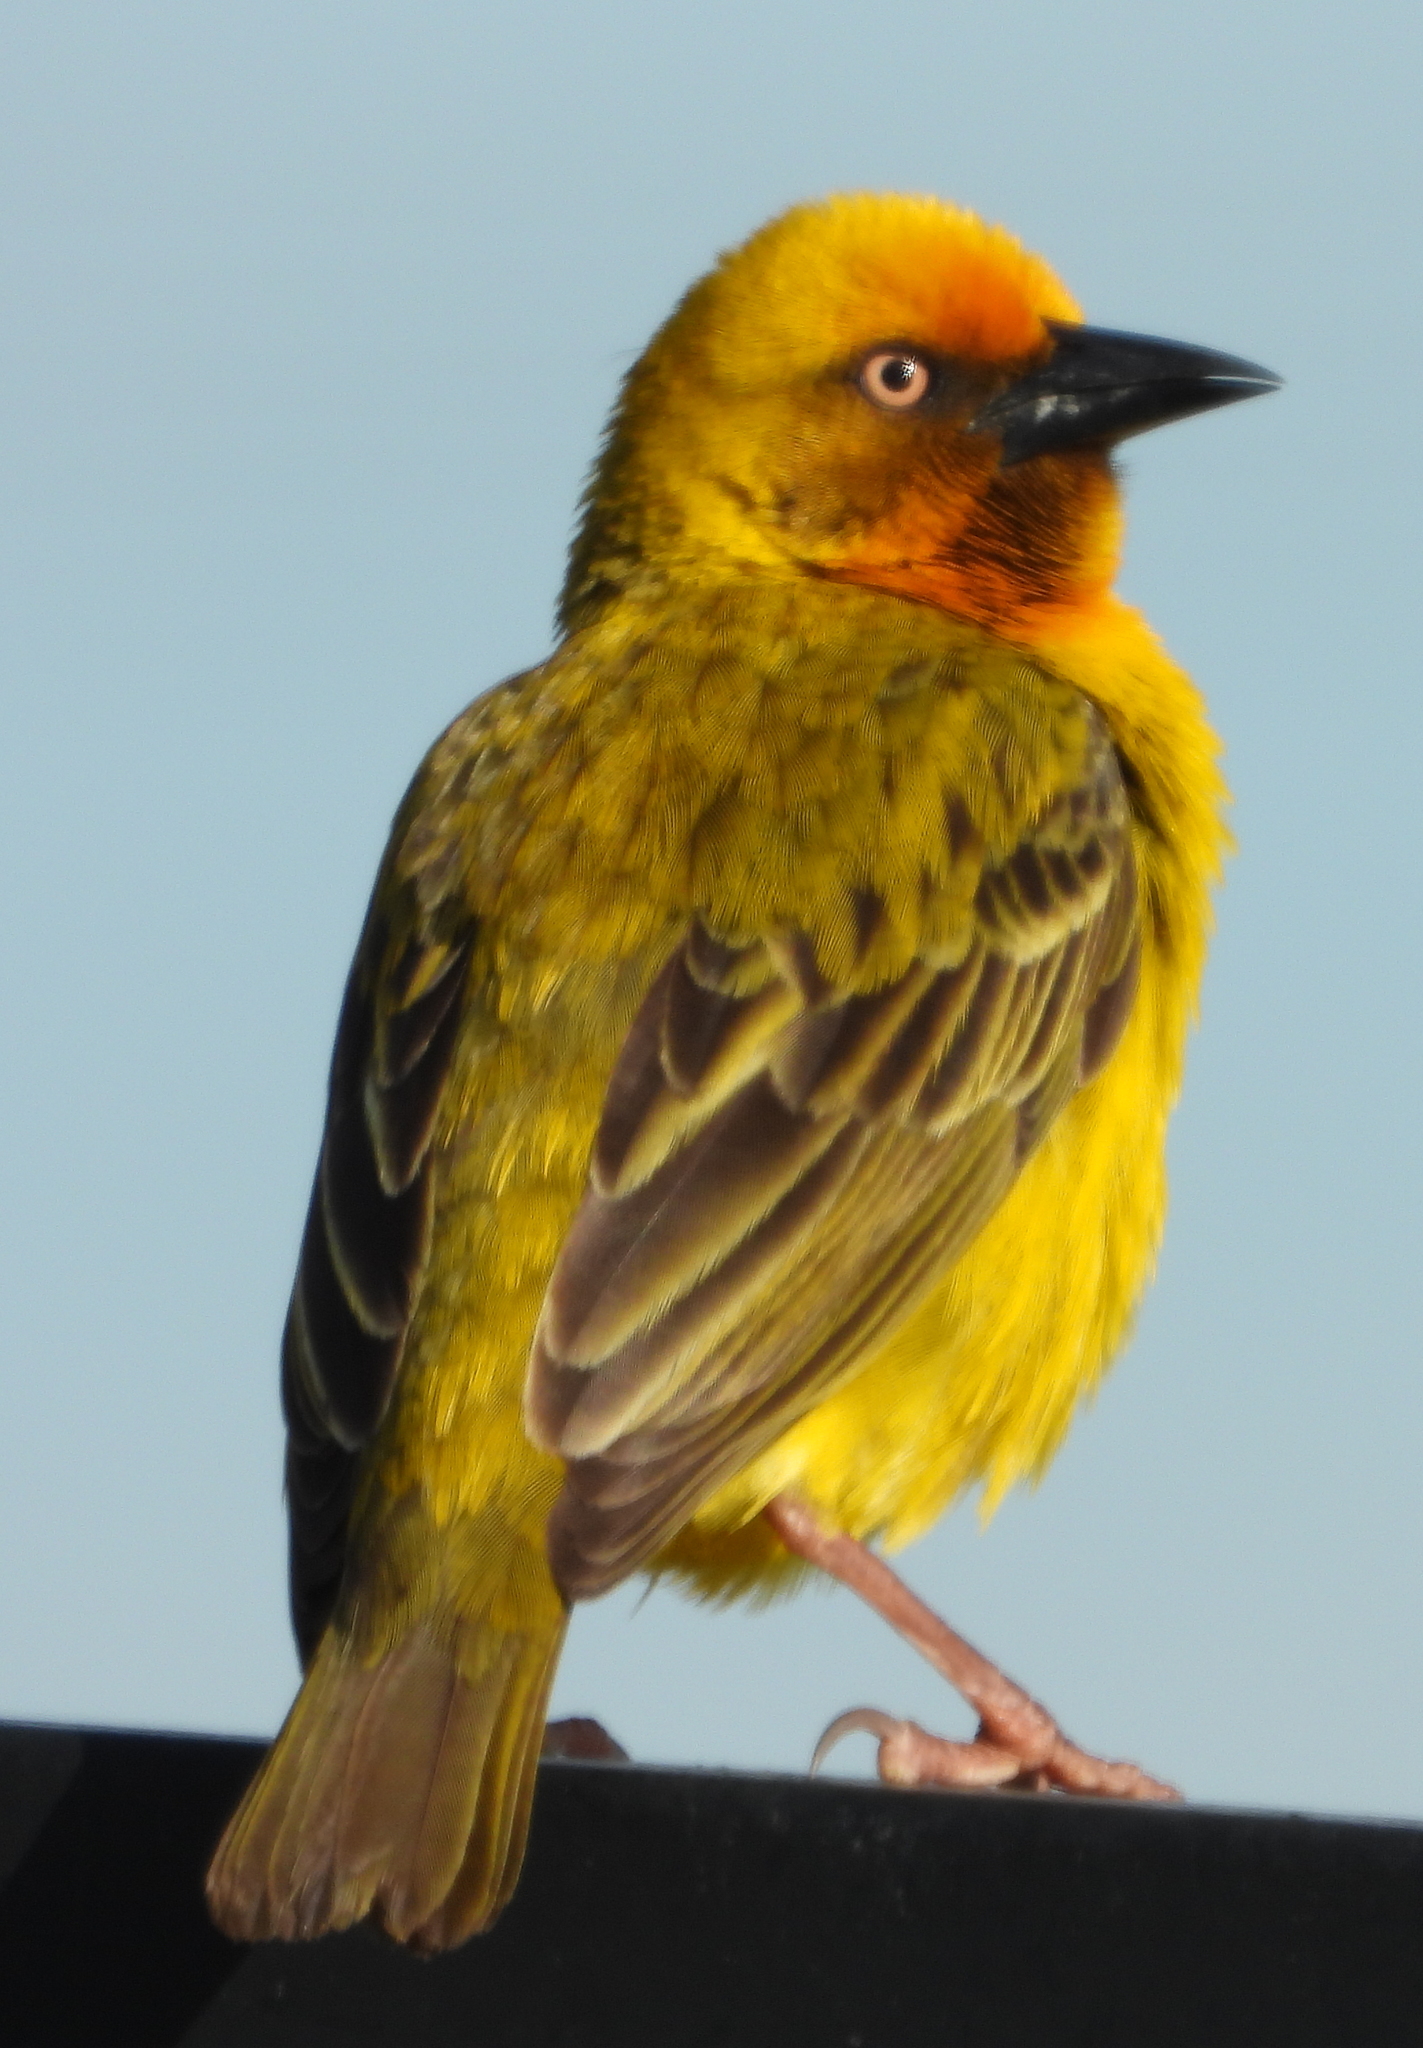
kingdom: Animalia
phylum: Chordata
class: Aves
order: Passeriformes
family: Ploceidae
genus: Ploceus
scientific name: Ploceus capensis
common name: Cape weaver
